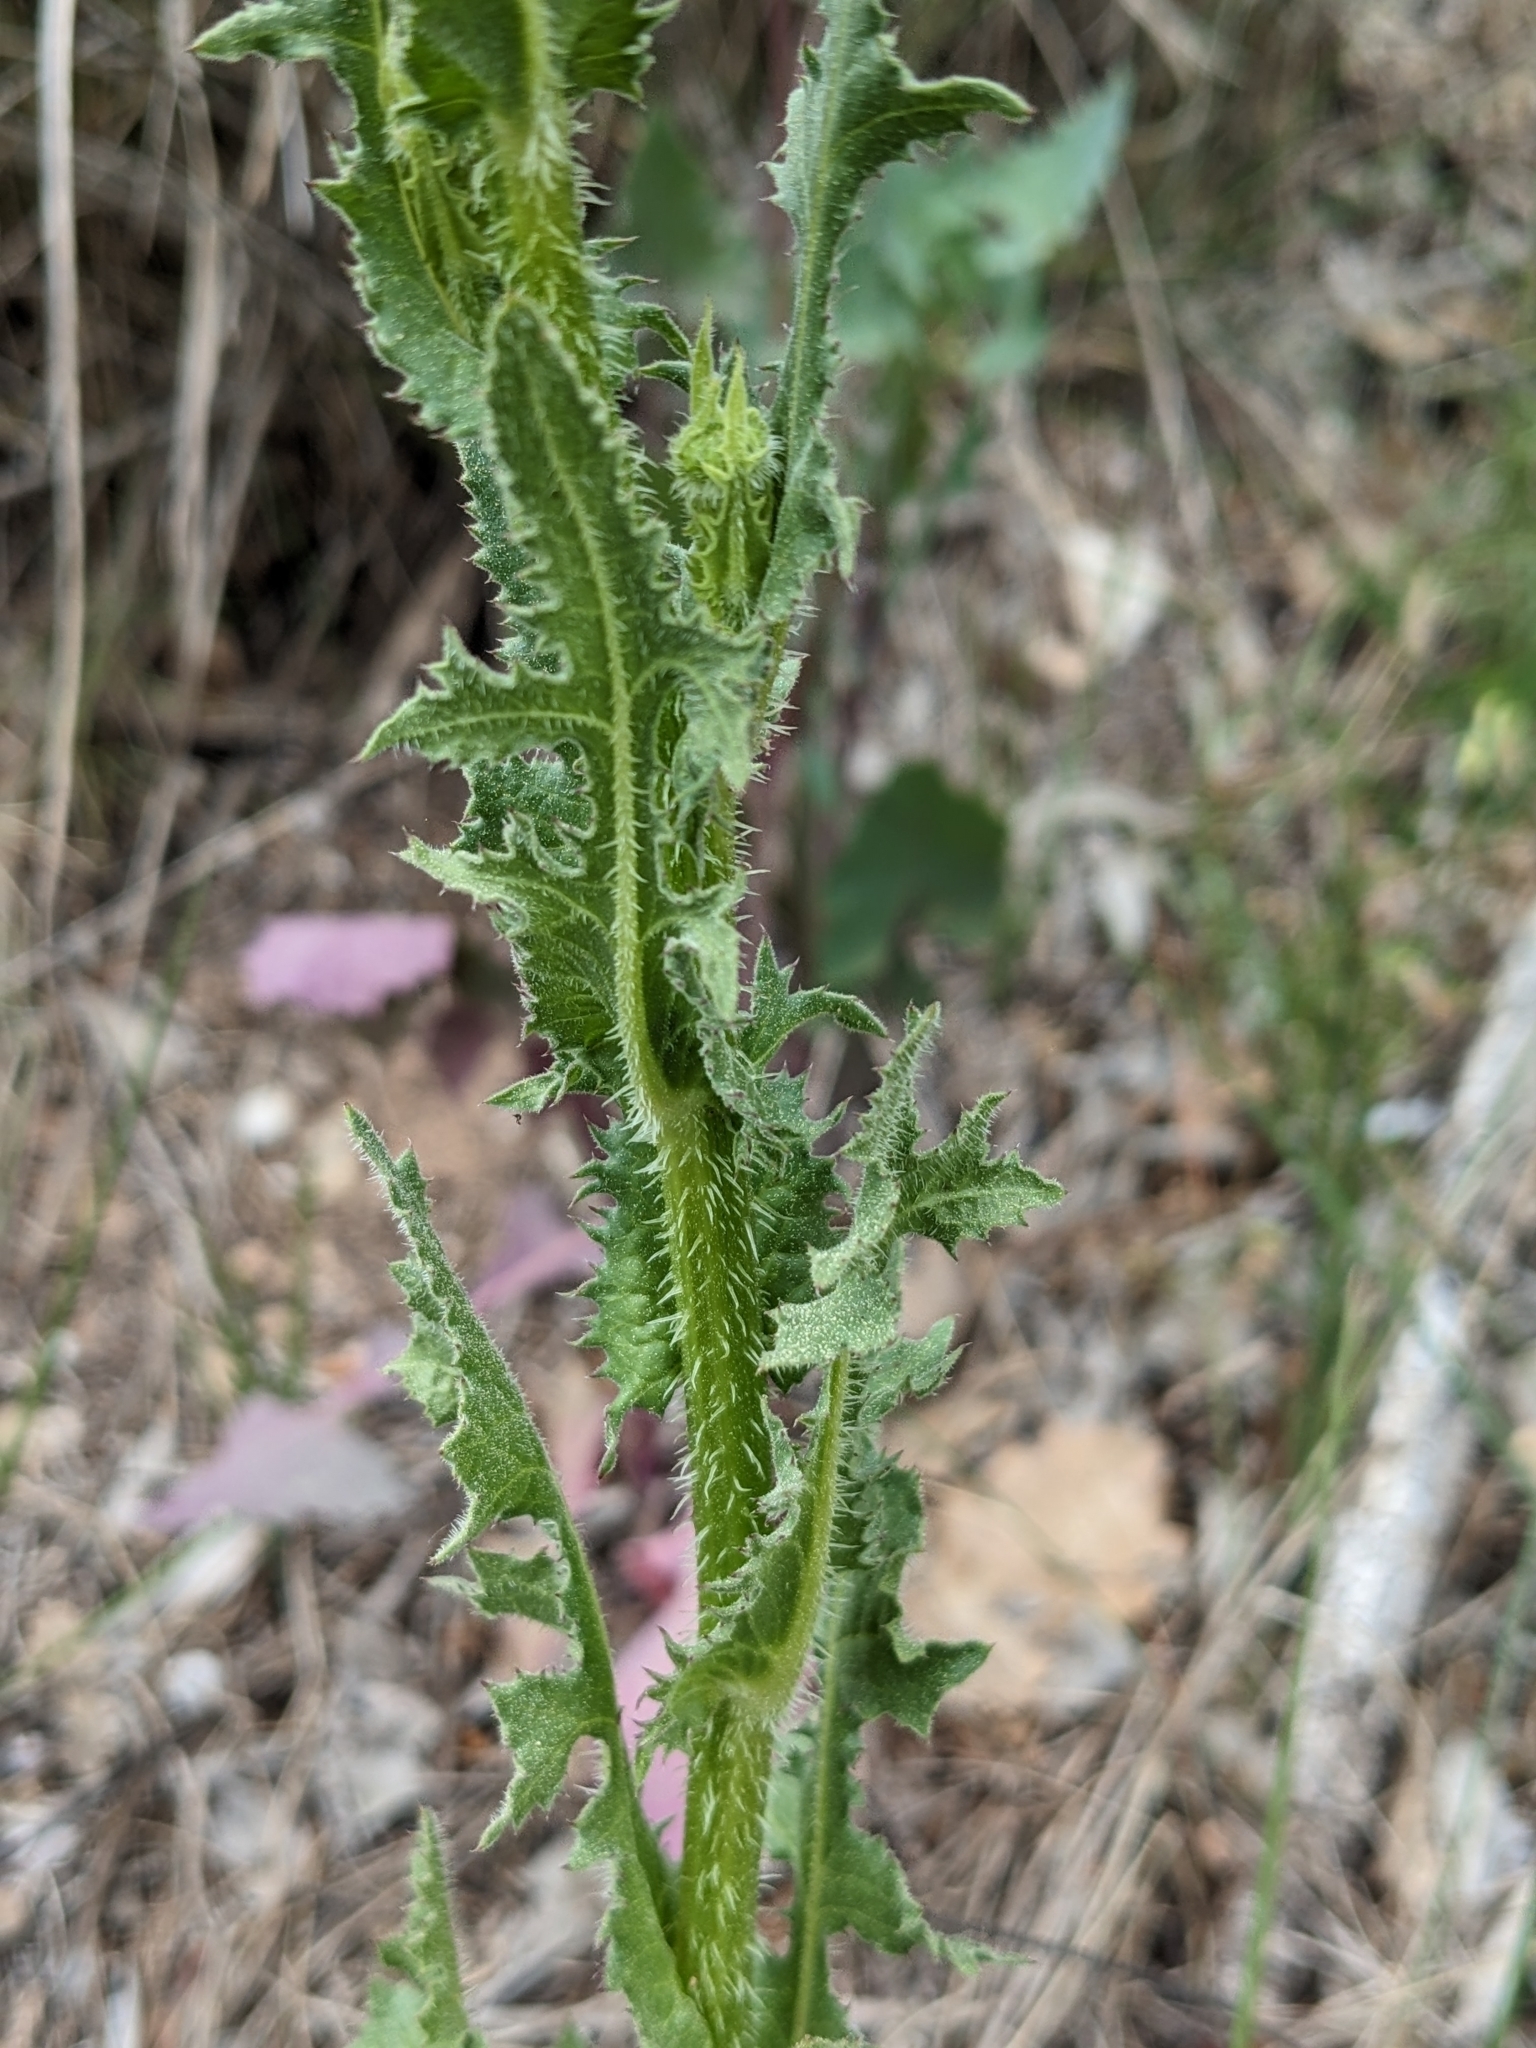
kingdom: Plantae
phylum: Tracheophyta
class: Magnoliopsida
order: Asterales
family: Asteraceae
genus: Urospermum
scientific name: Urospermum picroides
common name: False hawkbit
